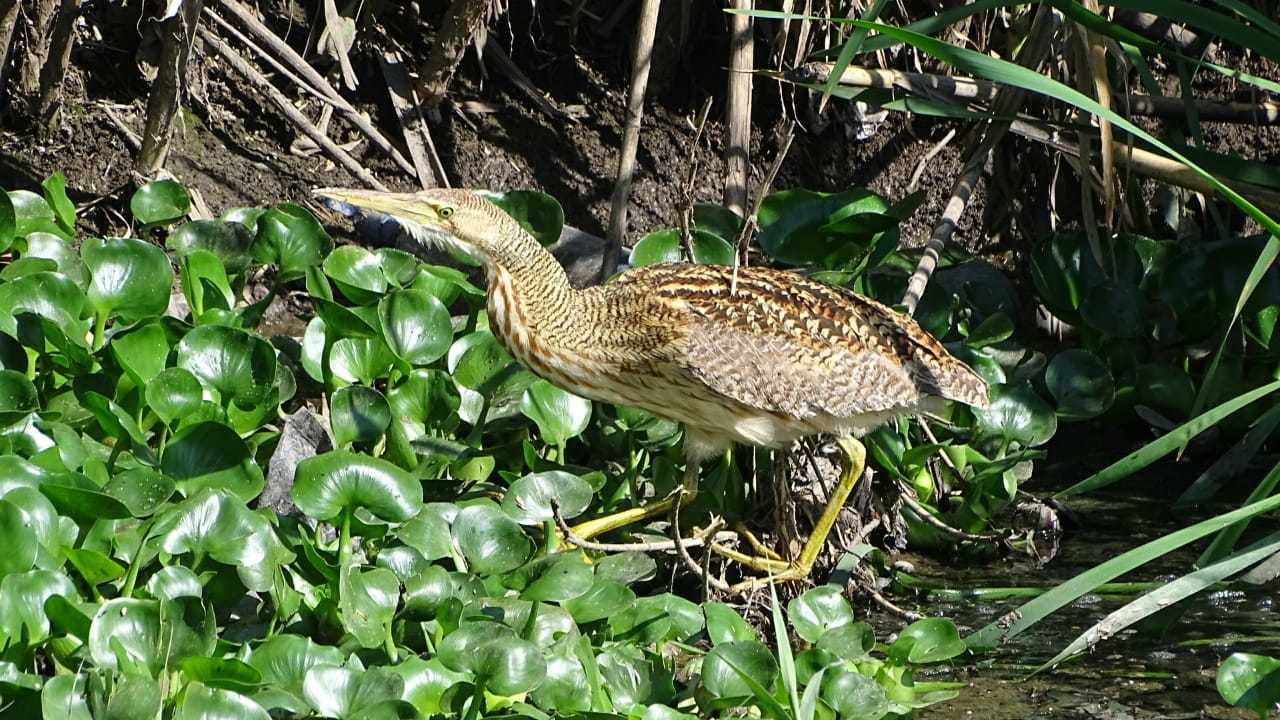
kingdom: Animalia
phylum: Chordata
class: Aves
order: Pelecaniformes
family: Ardeidae
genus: Botaurus
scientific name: Botaurus pinnatus
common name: Pinnated bittern
